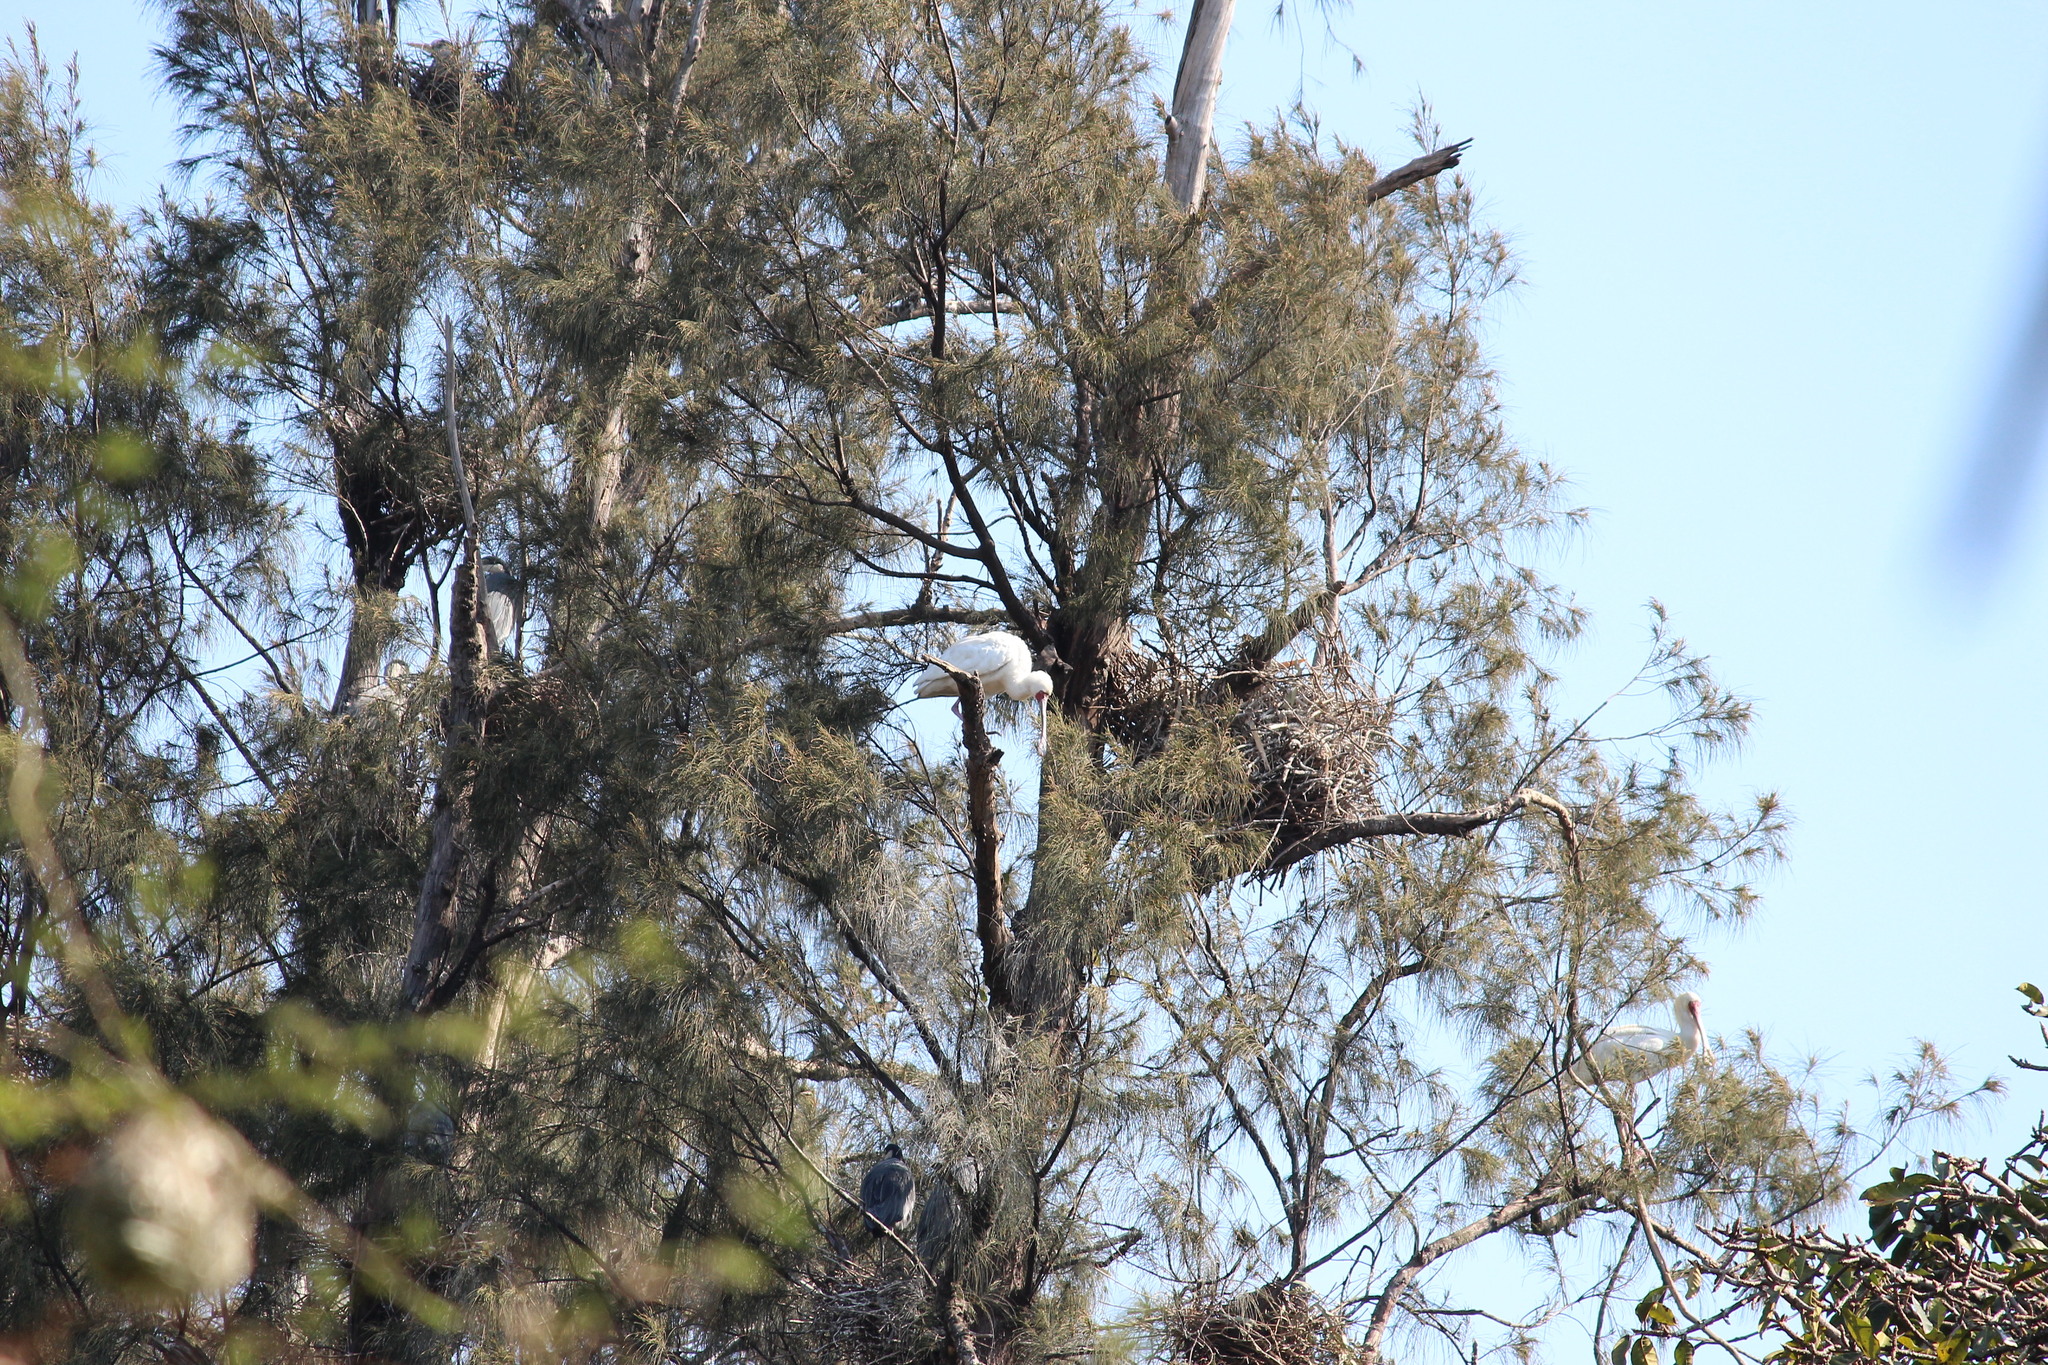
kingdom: Animalia
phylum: Chordata
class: Aves
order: Pelecaniformes
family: Threskiornithidae
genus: Platalea
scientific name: Platalea alba
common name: African spoonbill
